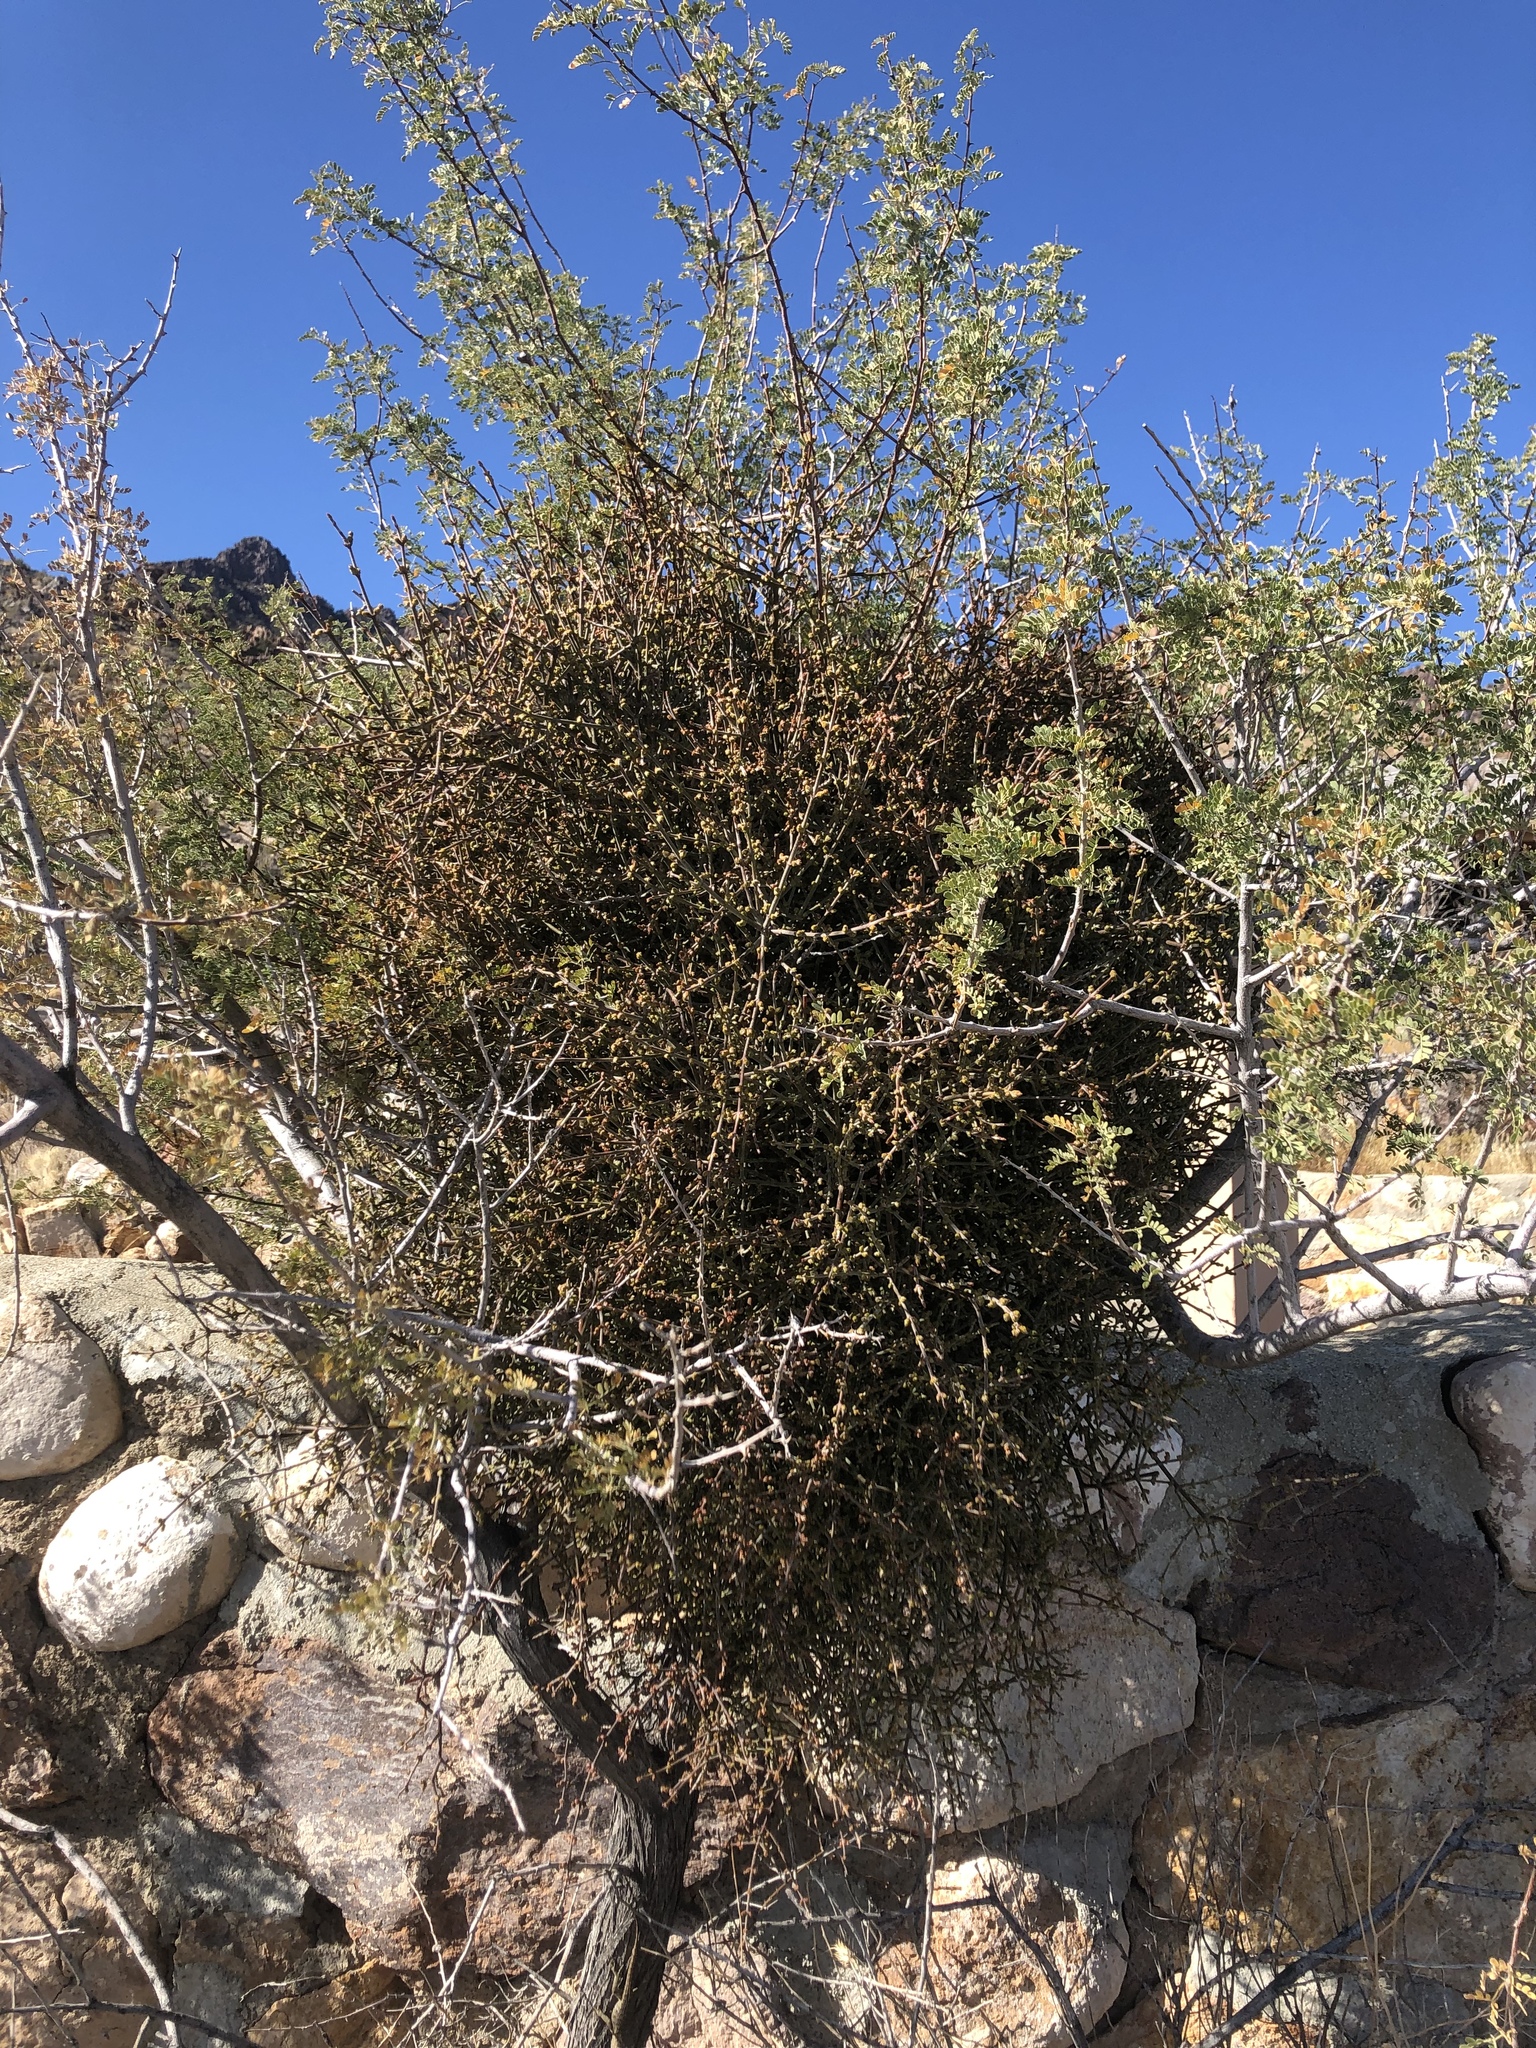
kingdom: Plantae
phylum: Tracheophyta
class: Magnoliopsida
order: Santalales
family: Viscaceae
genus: Phoradendron
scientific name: Phoradendron californicum
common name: Acacia mistletoe
